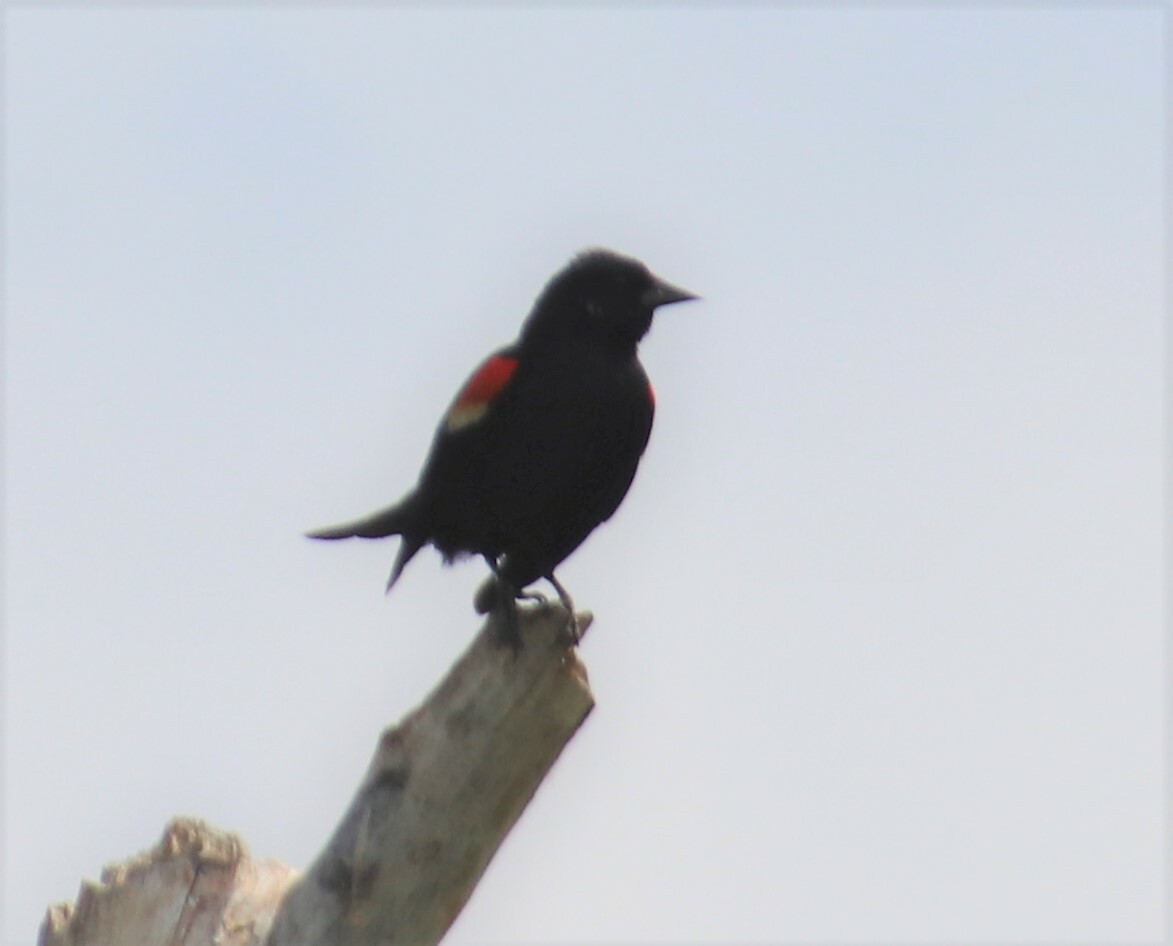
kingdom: Animalia
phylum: Chordata
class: Aves
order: Passeriformes
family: Icteridae
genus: Agelaius
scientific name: Agelaius phoeniceus
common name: Red-winged blackbird
